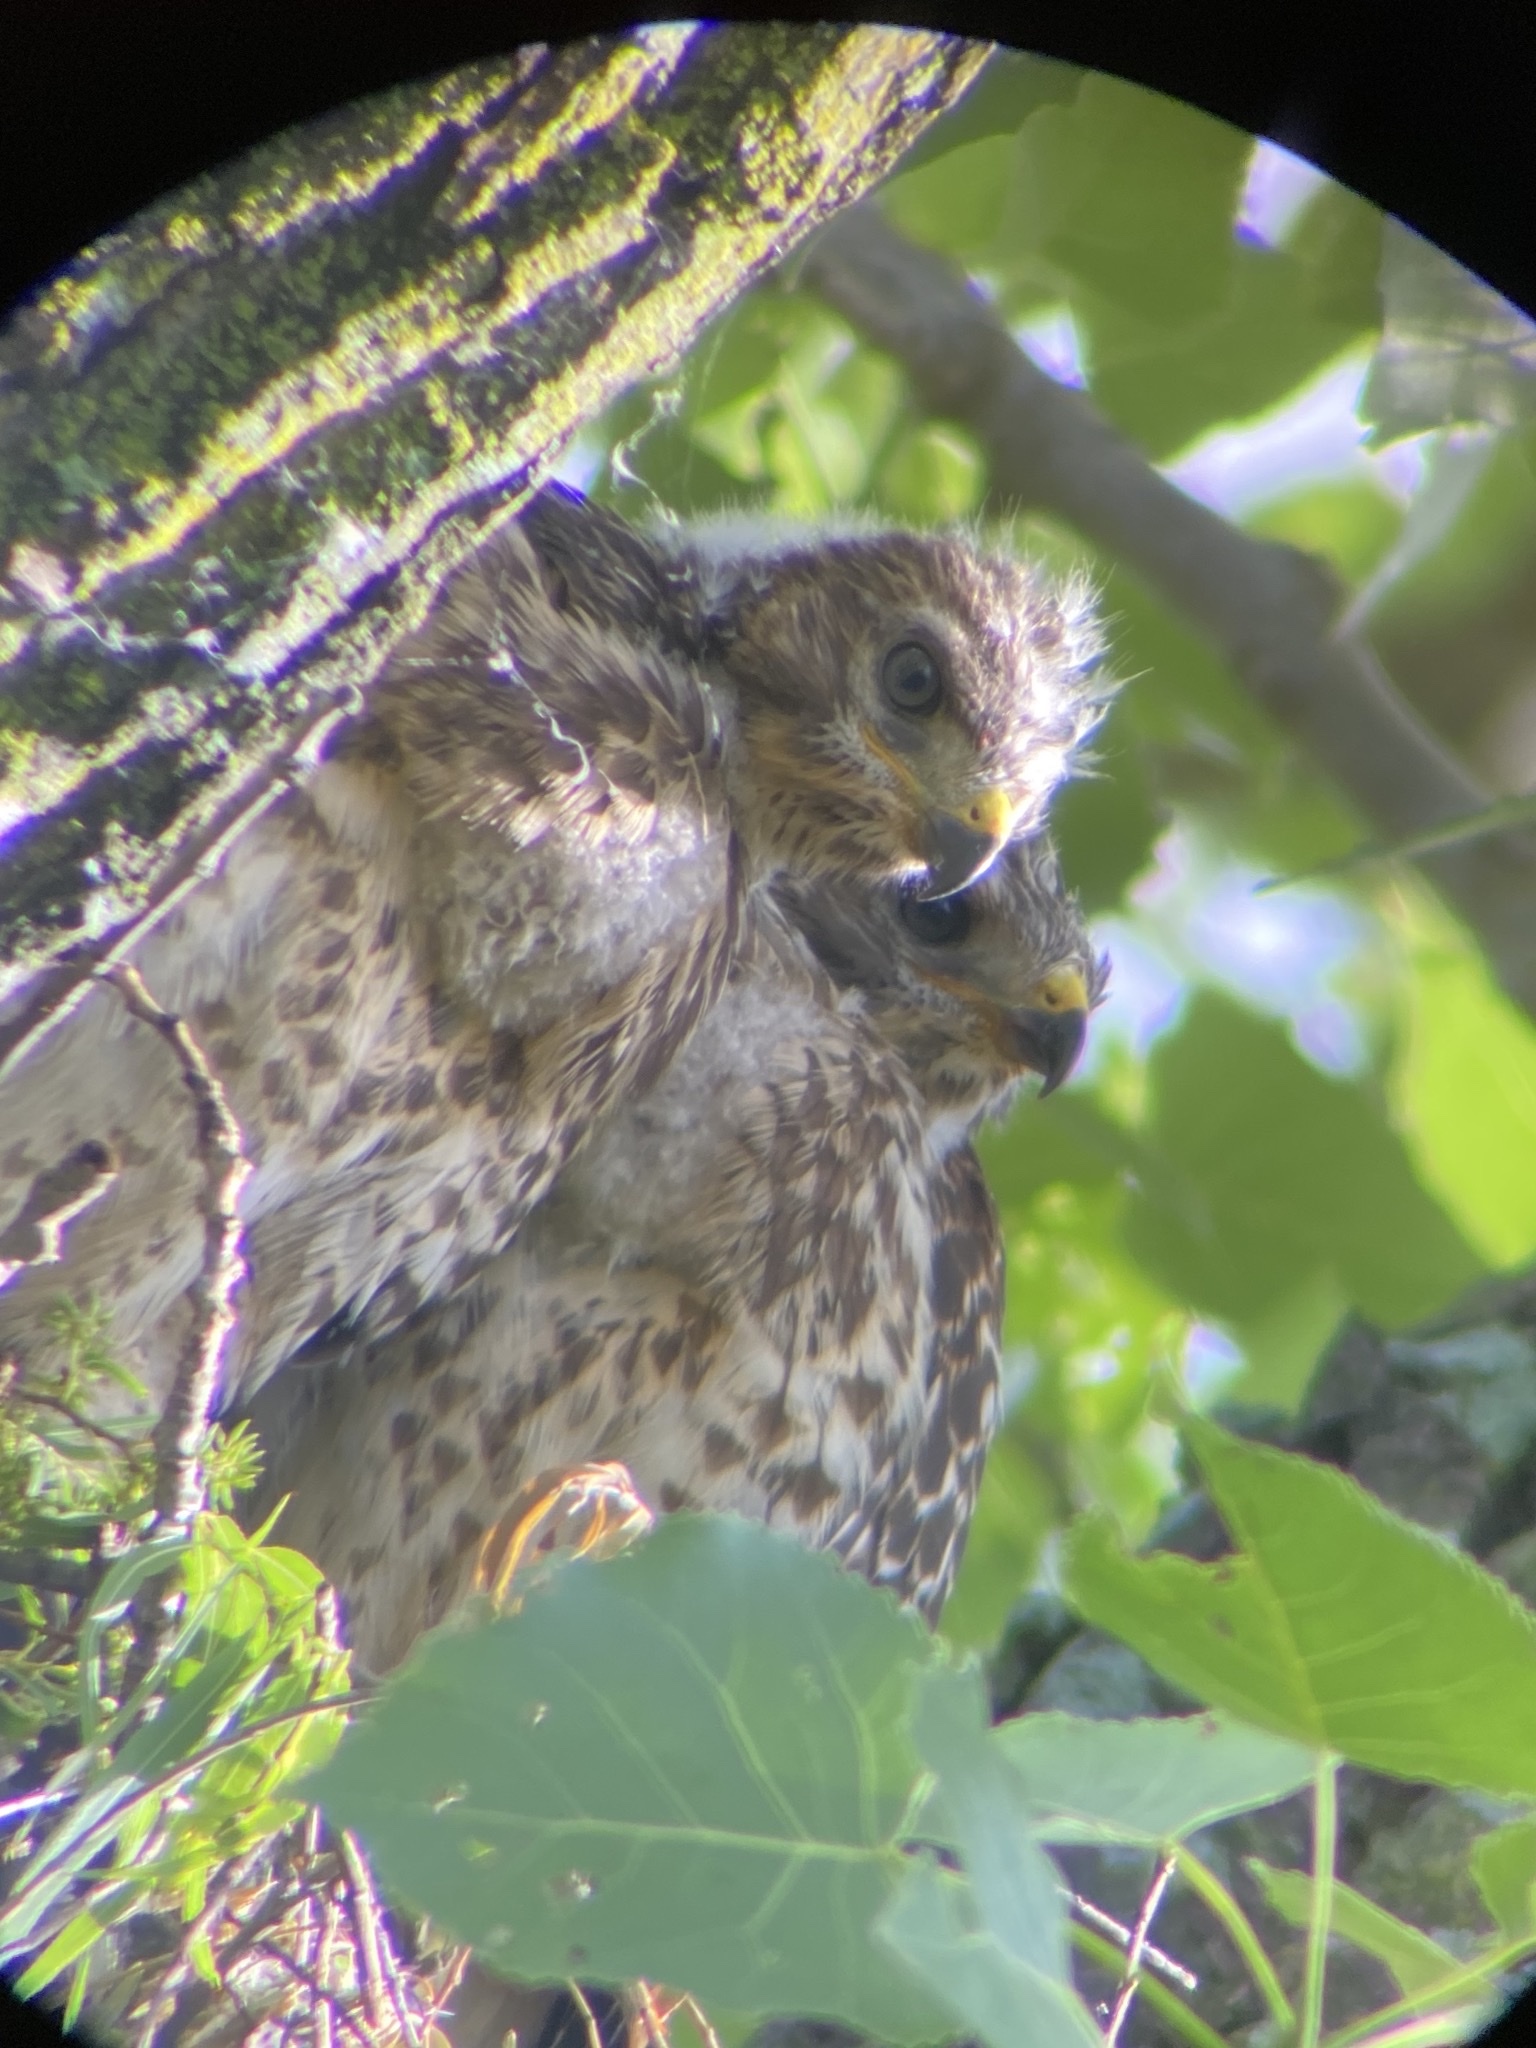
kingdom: Animalia
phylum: Chordata
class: Aves
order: Accipitriformes
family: Accipitridae
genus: Buteo
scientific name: Buteo lineatus
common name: Red-shouldered hawk
